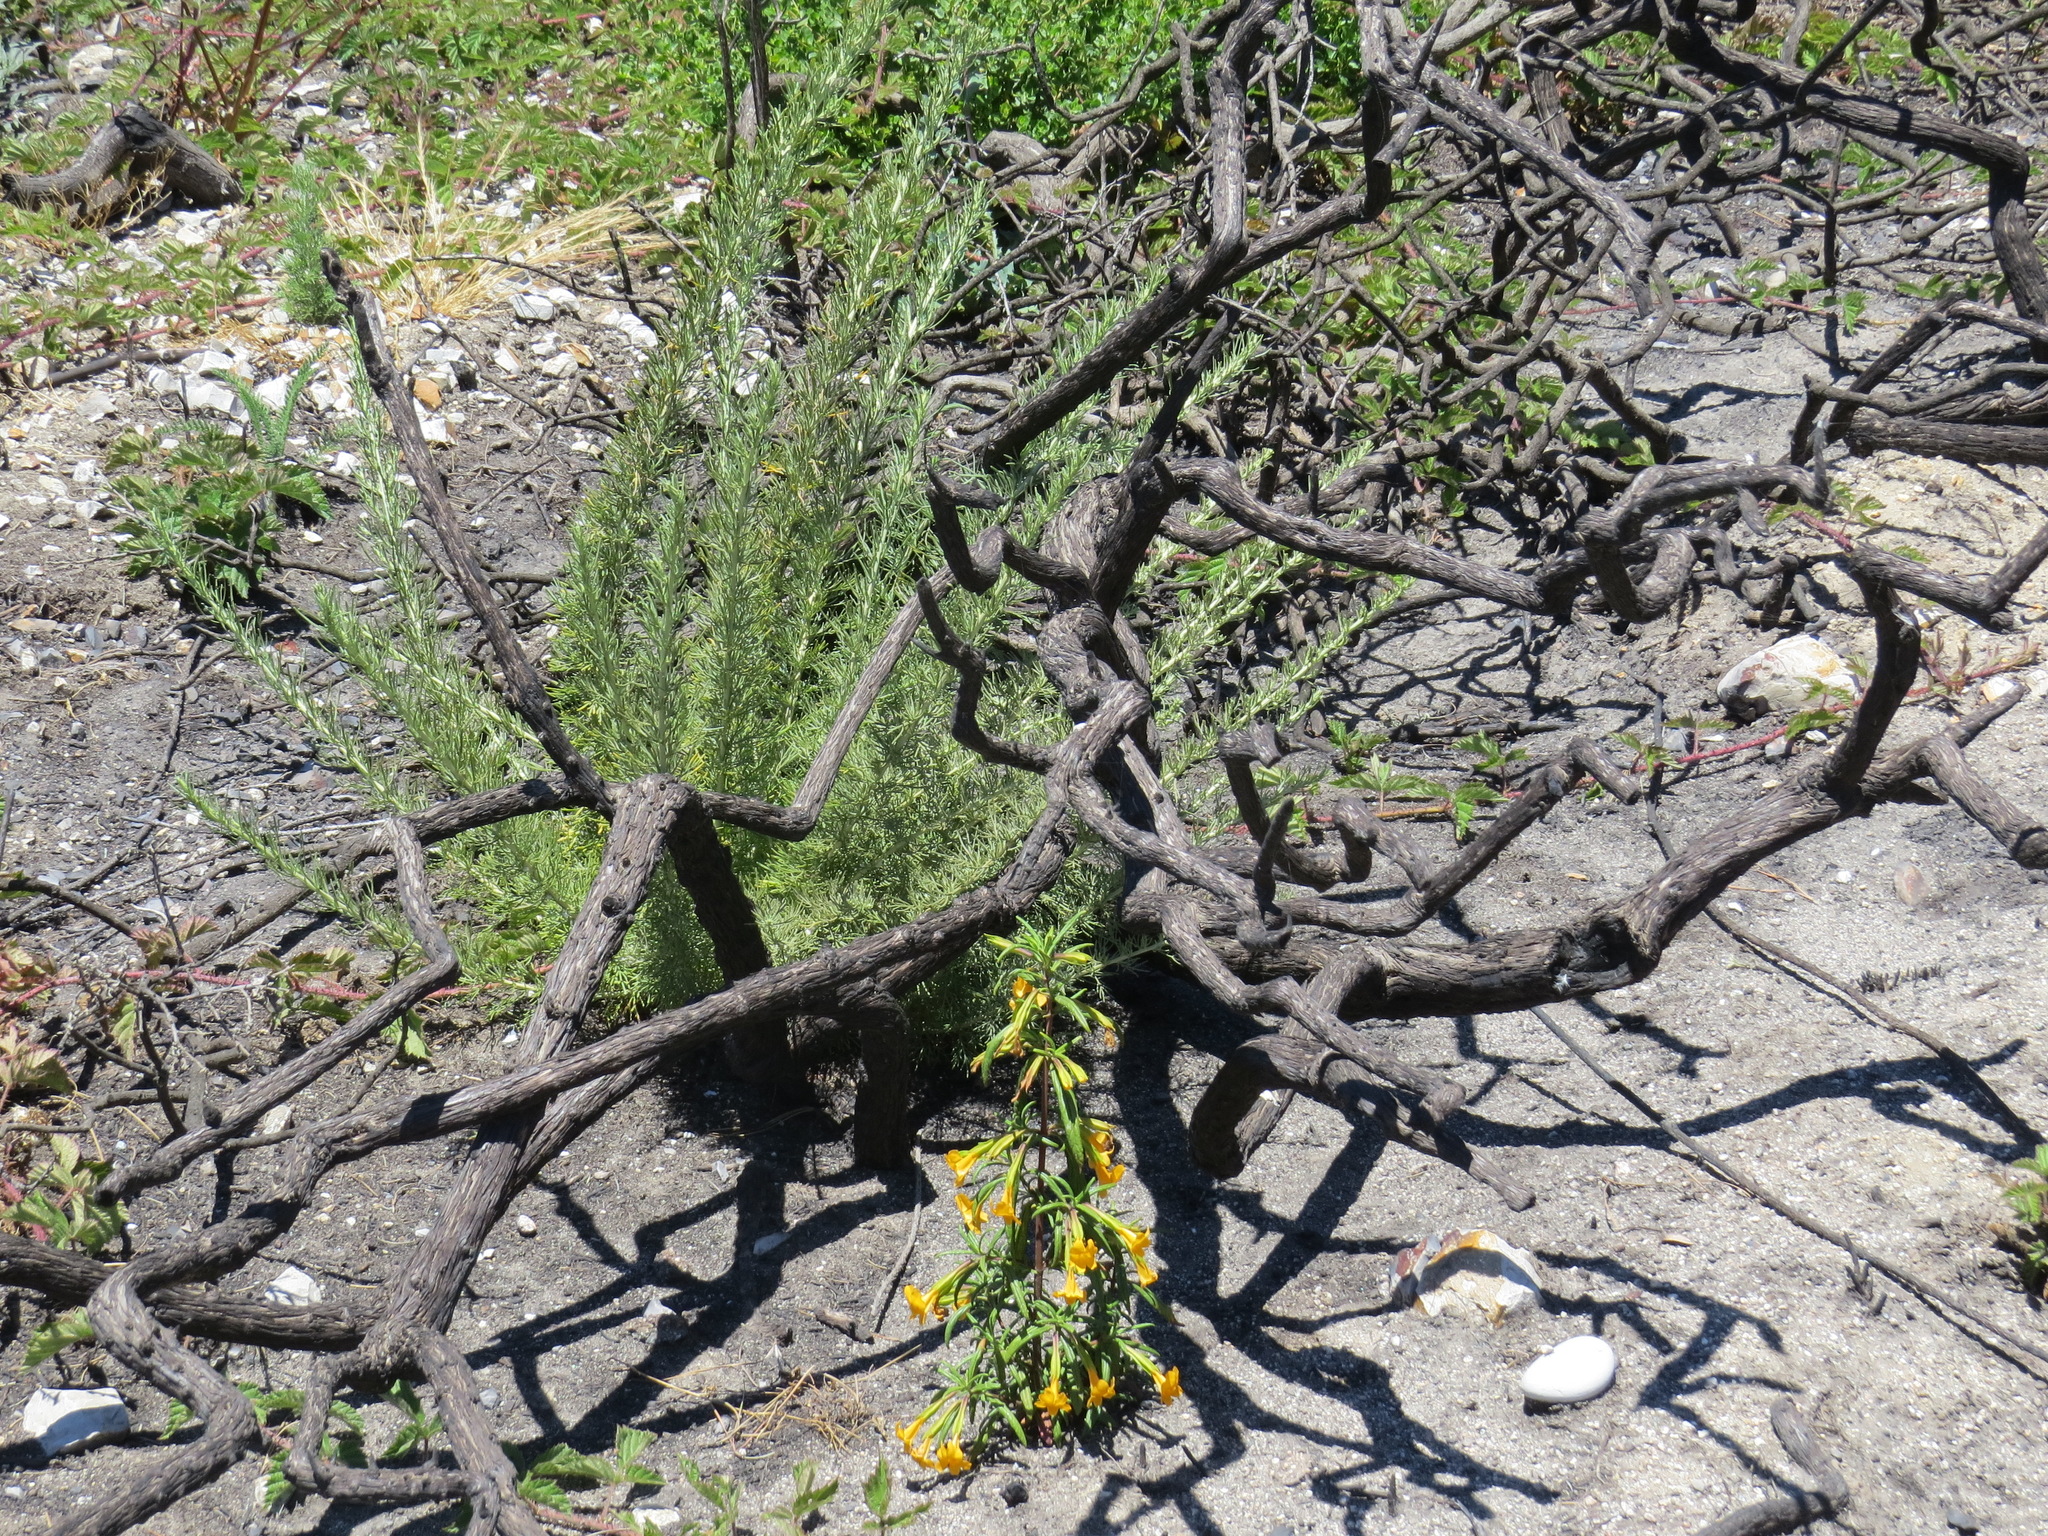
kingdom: Plantae
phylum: Tracheophyta
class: Magnoliopsida
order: Lamiales
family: Phrymaceae
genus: Diplacus
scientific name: Diplacus aurantiacus
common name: Bush monkey-flower
